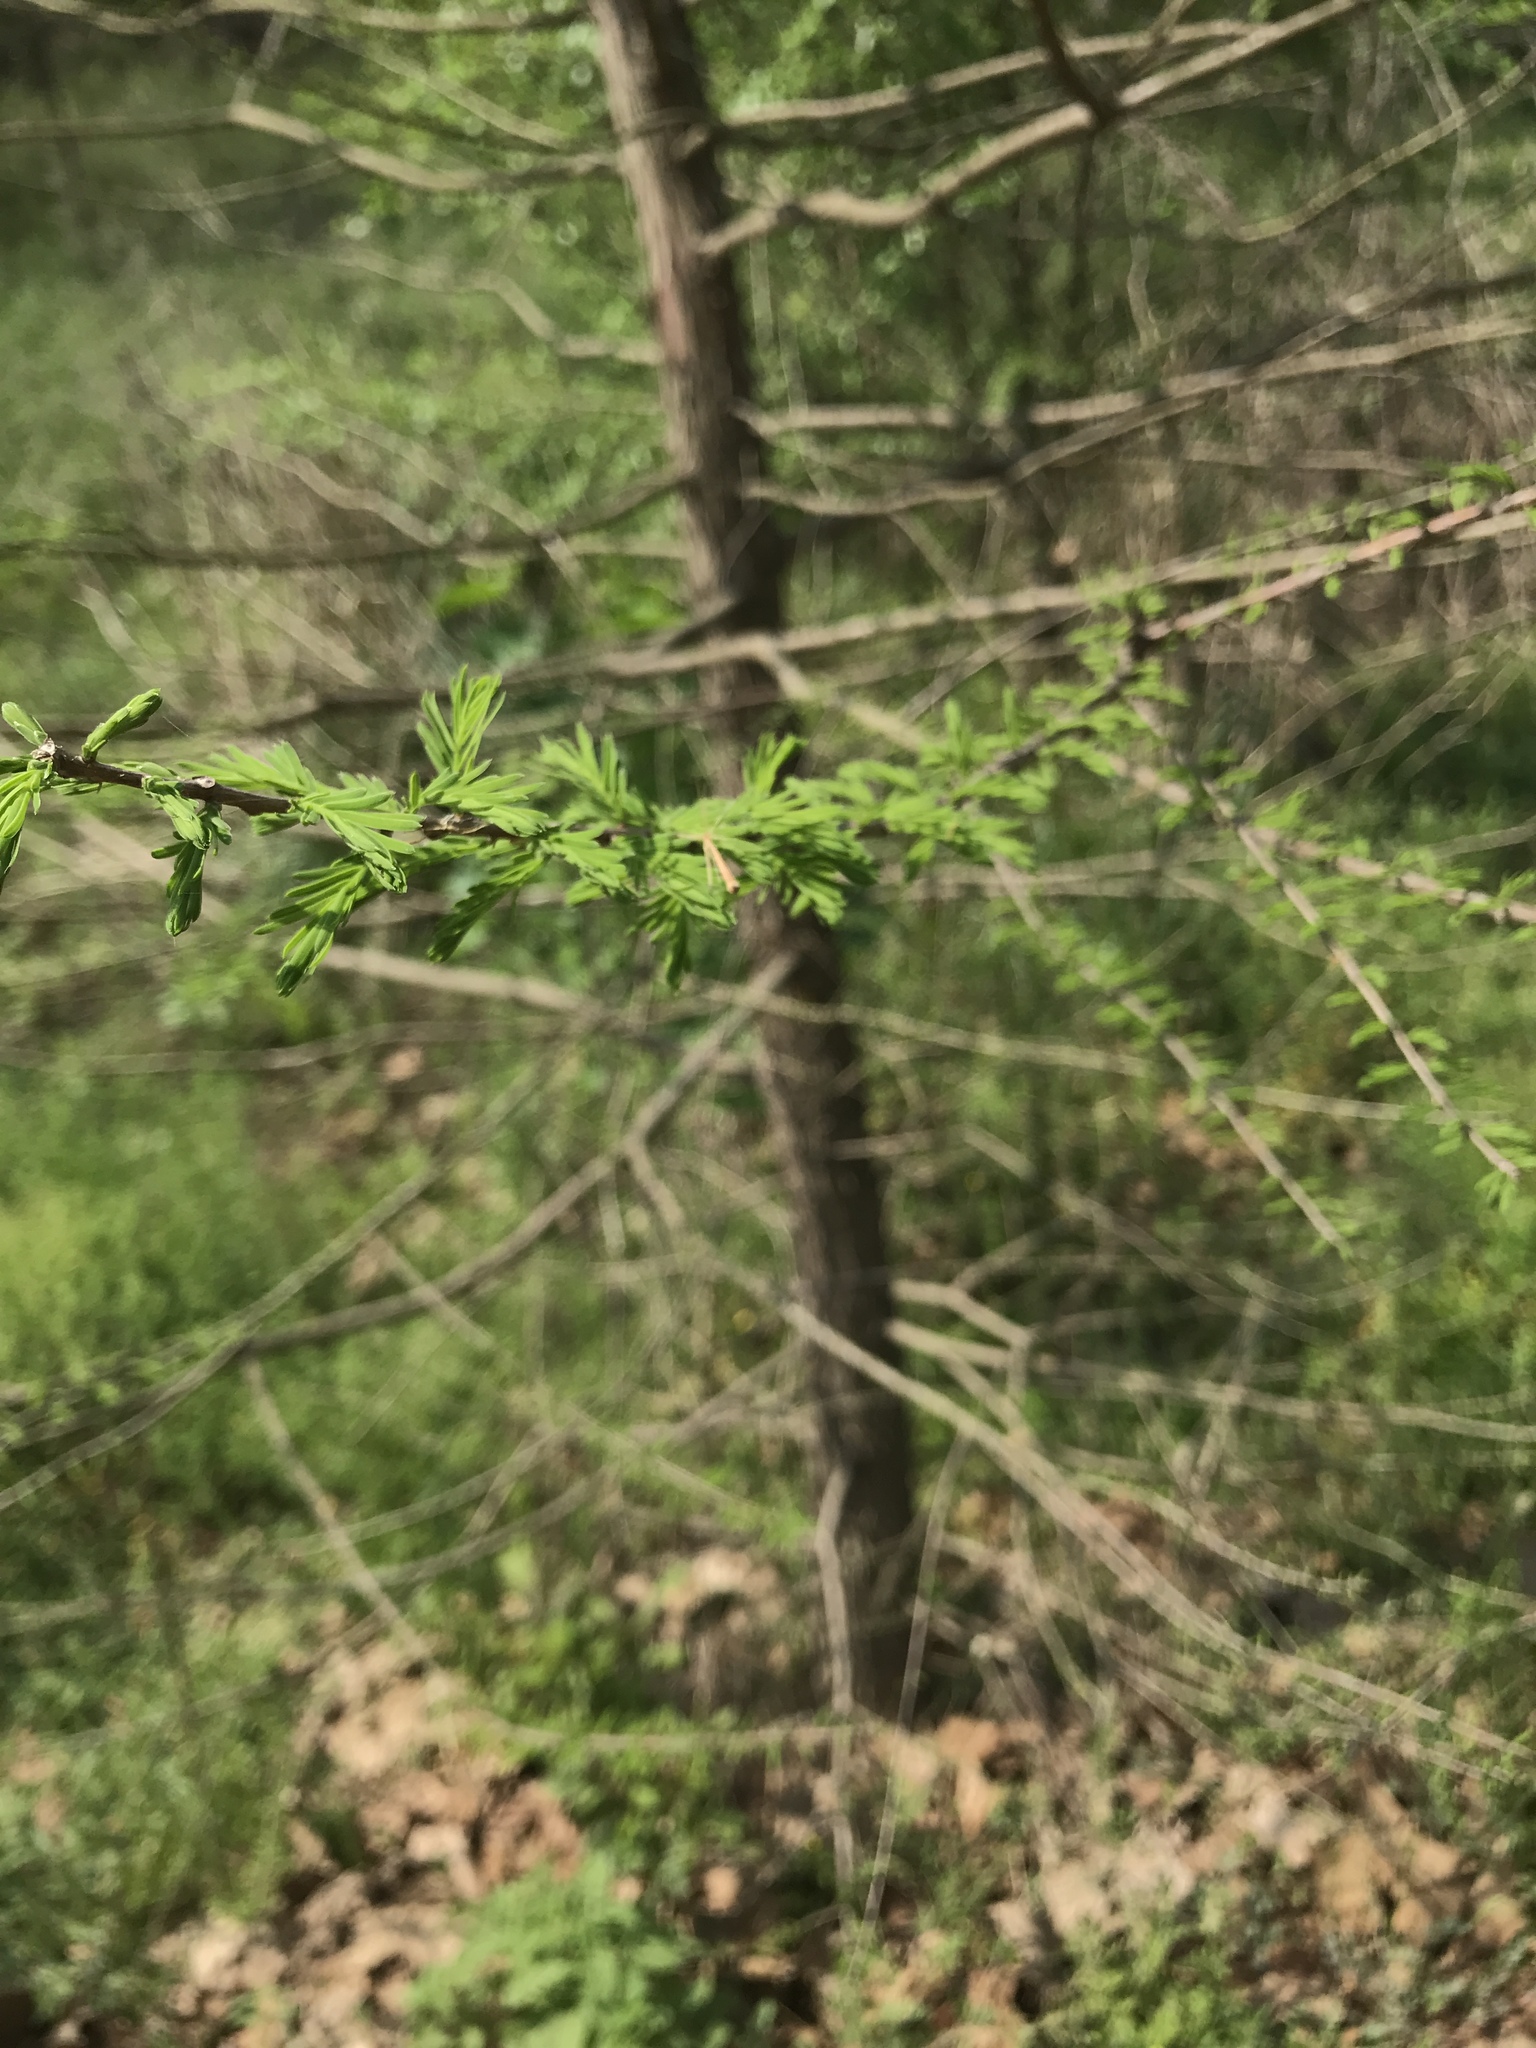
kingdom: Plantae
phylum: Tracheophyta
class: Pinopsida
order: Pinales
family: Cupressaceae
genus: Taxodium
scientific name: Taxodium distichum
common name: Bald cypress
